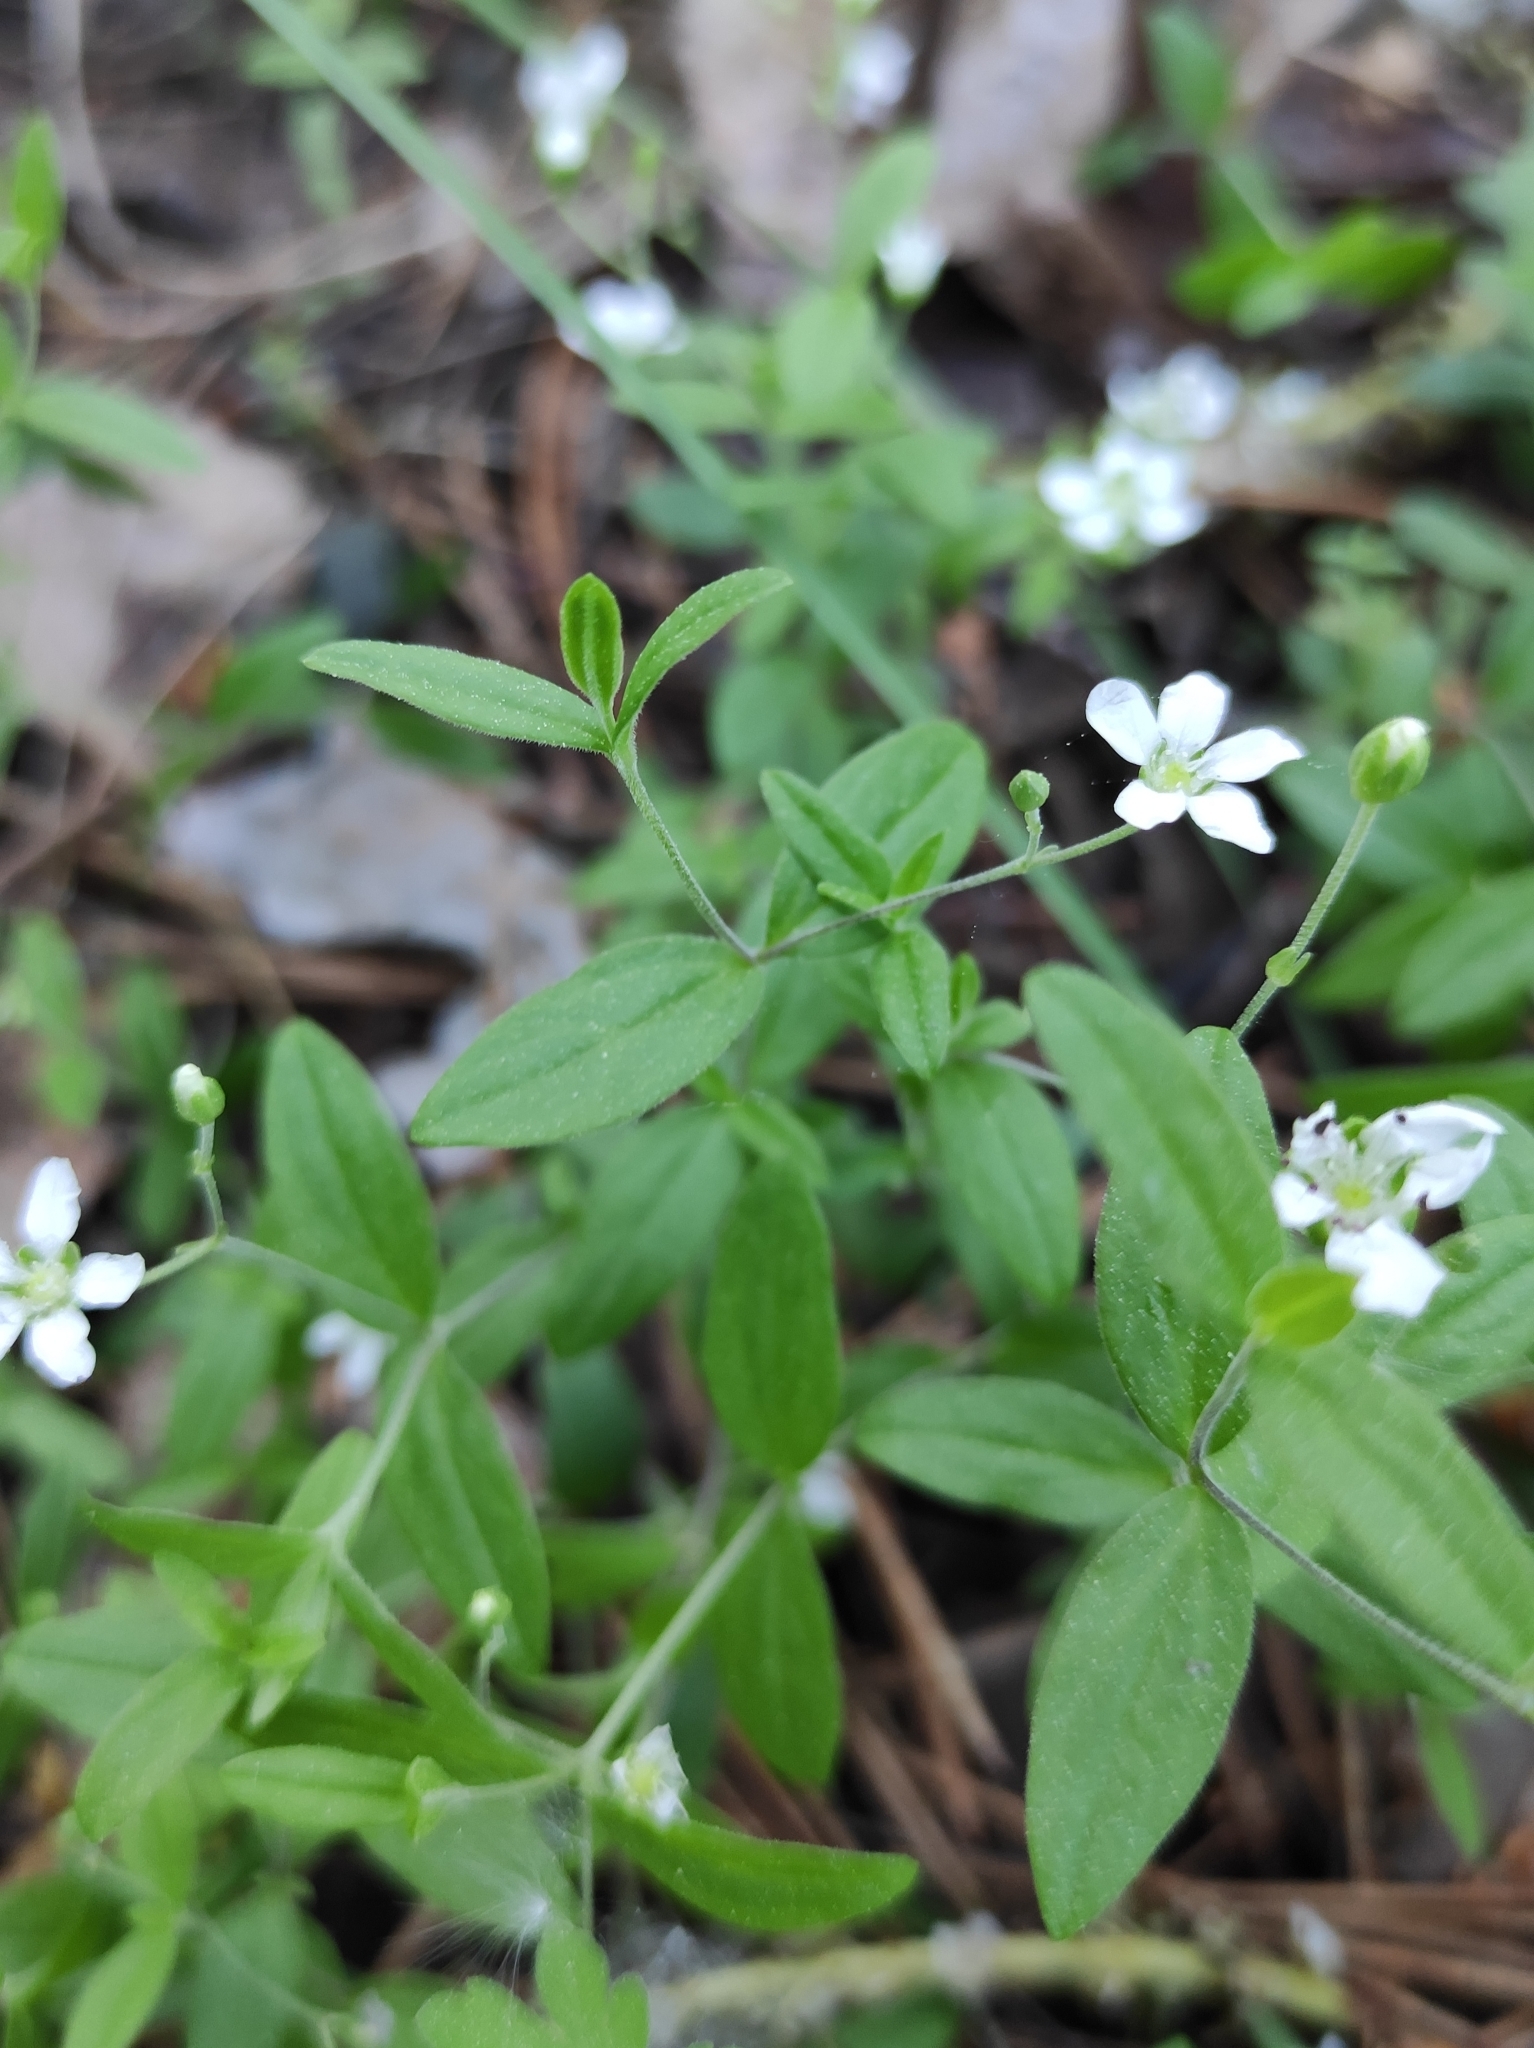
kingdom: Plantae
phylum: Tracheophyta
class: Magnoliopsida
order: Caryophyllales
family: Caryophyllaceae
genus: Moehringia
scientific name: Moehringia lateriflora
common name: Blunt-leaved sandwort
